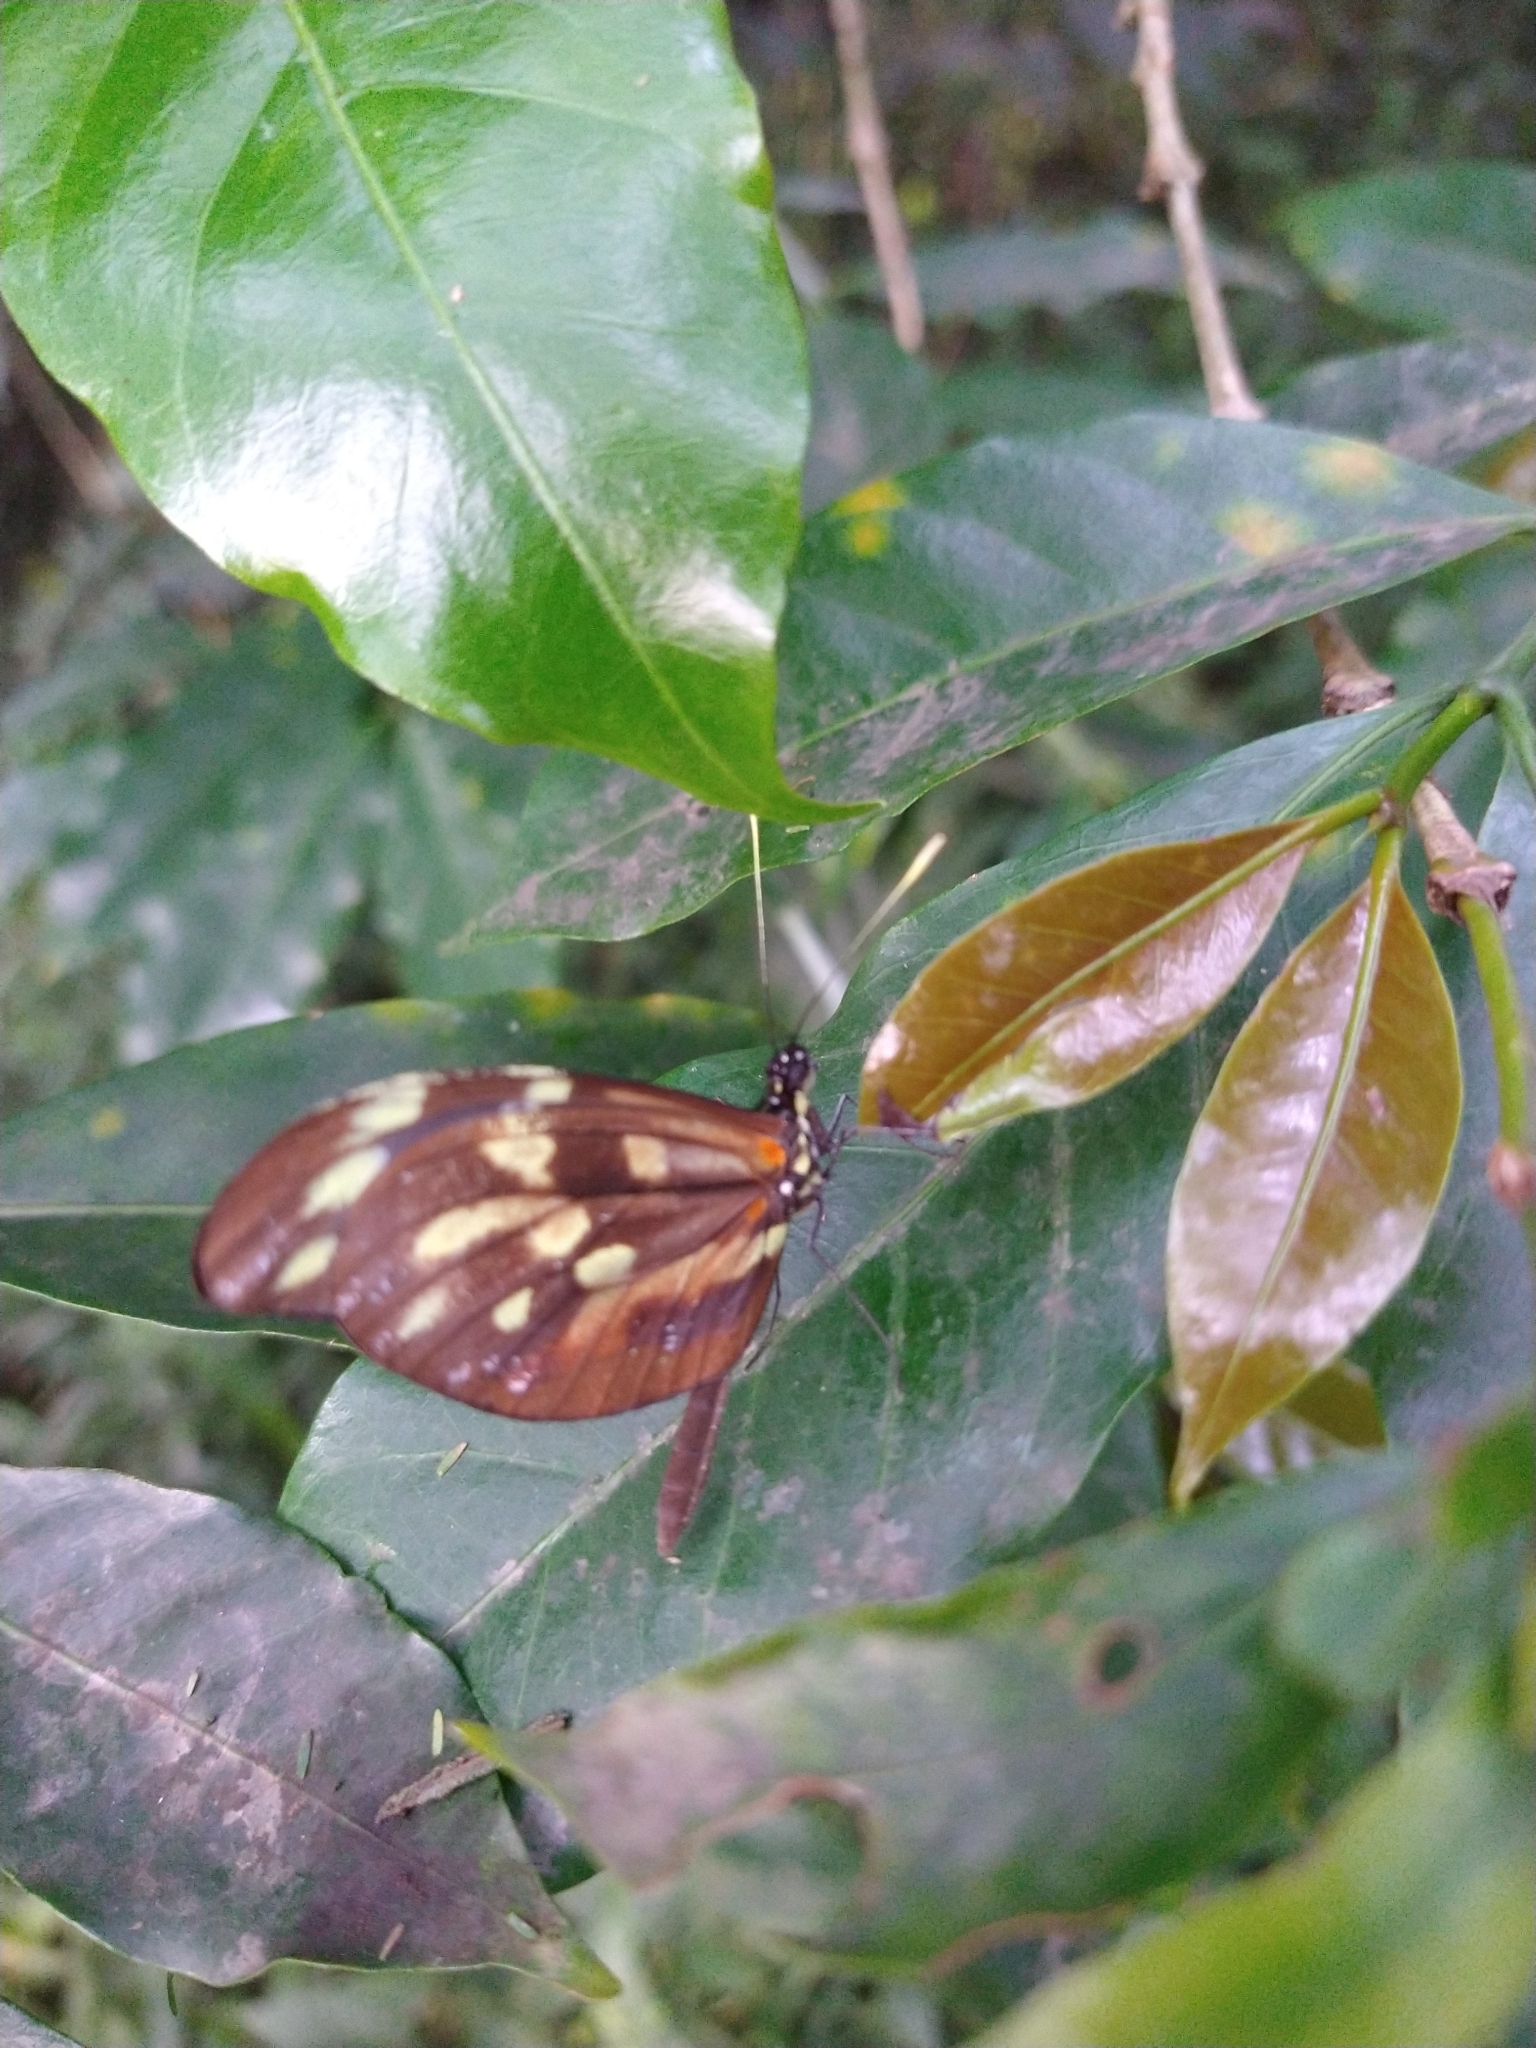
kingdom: Animalia
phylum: Arthropoda
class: Insecta
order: Lepidoptera
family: Pieridae
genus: Dismorphia
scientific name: Dismorphia amphione
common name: Tiger mimic-white
